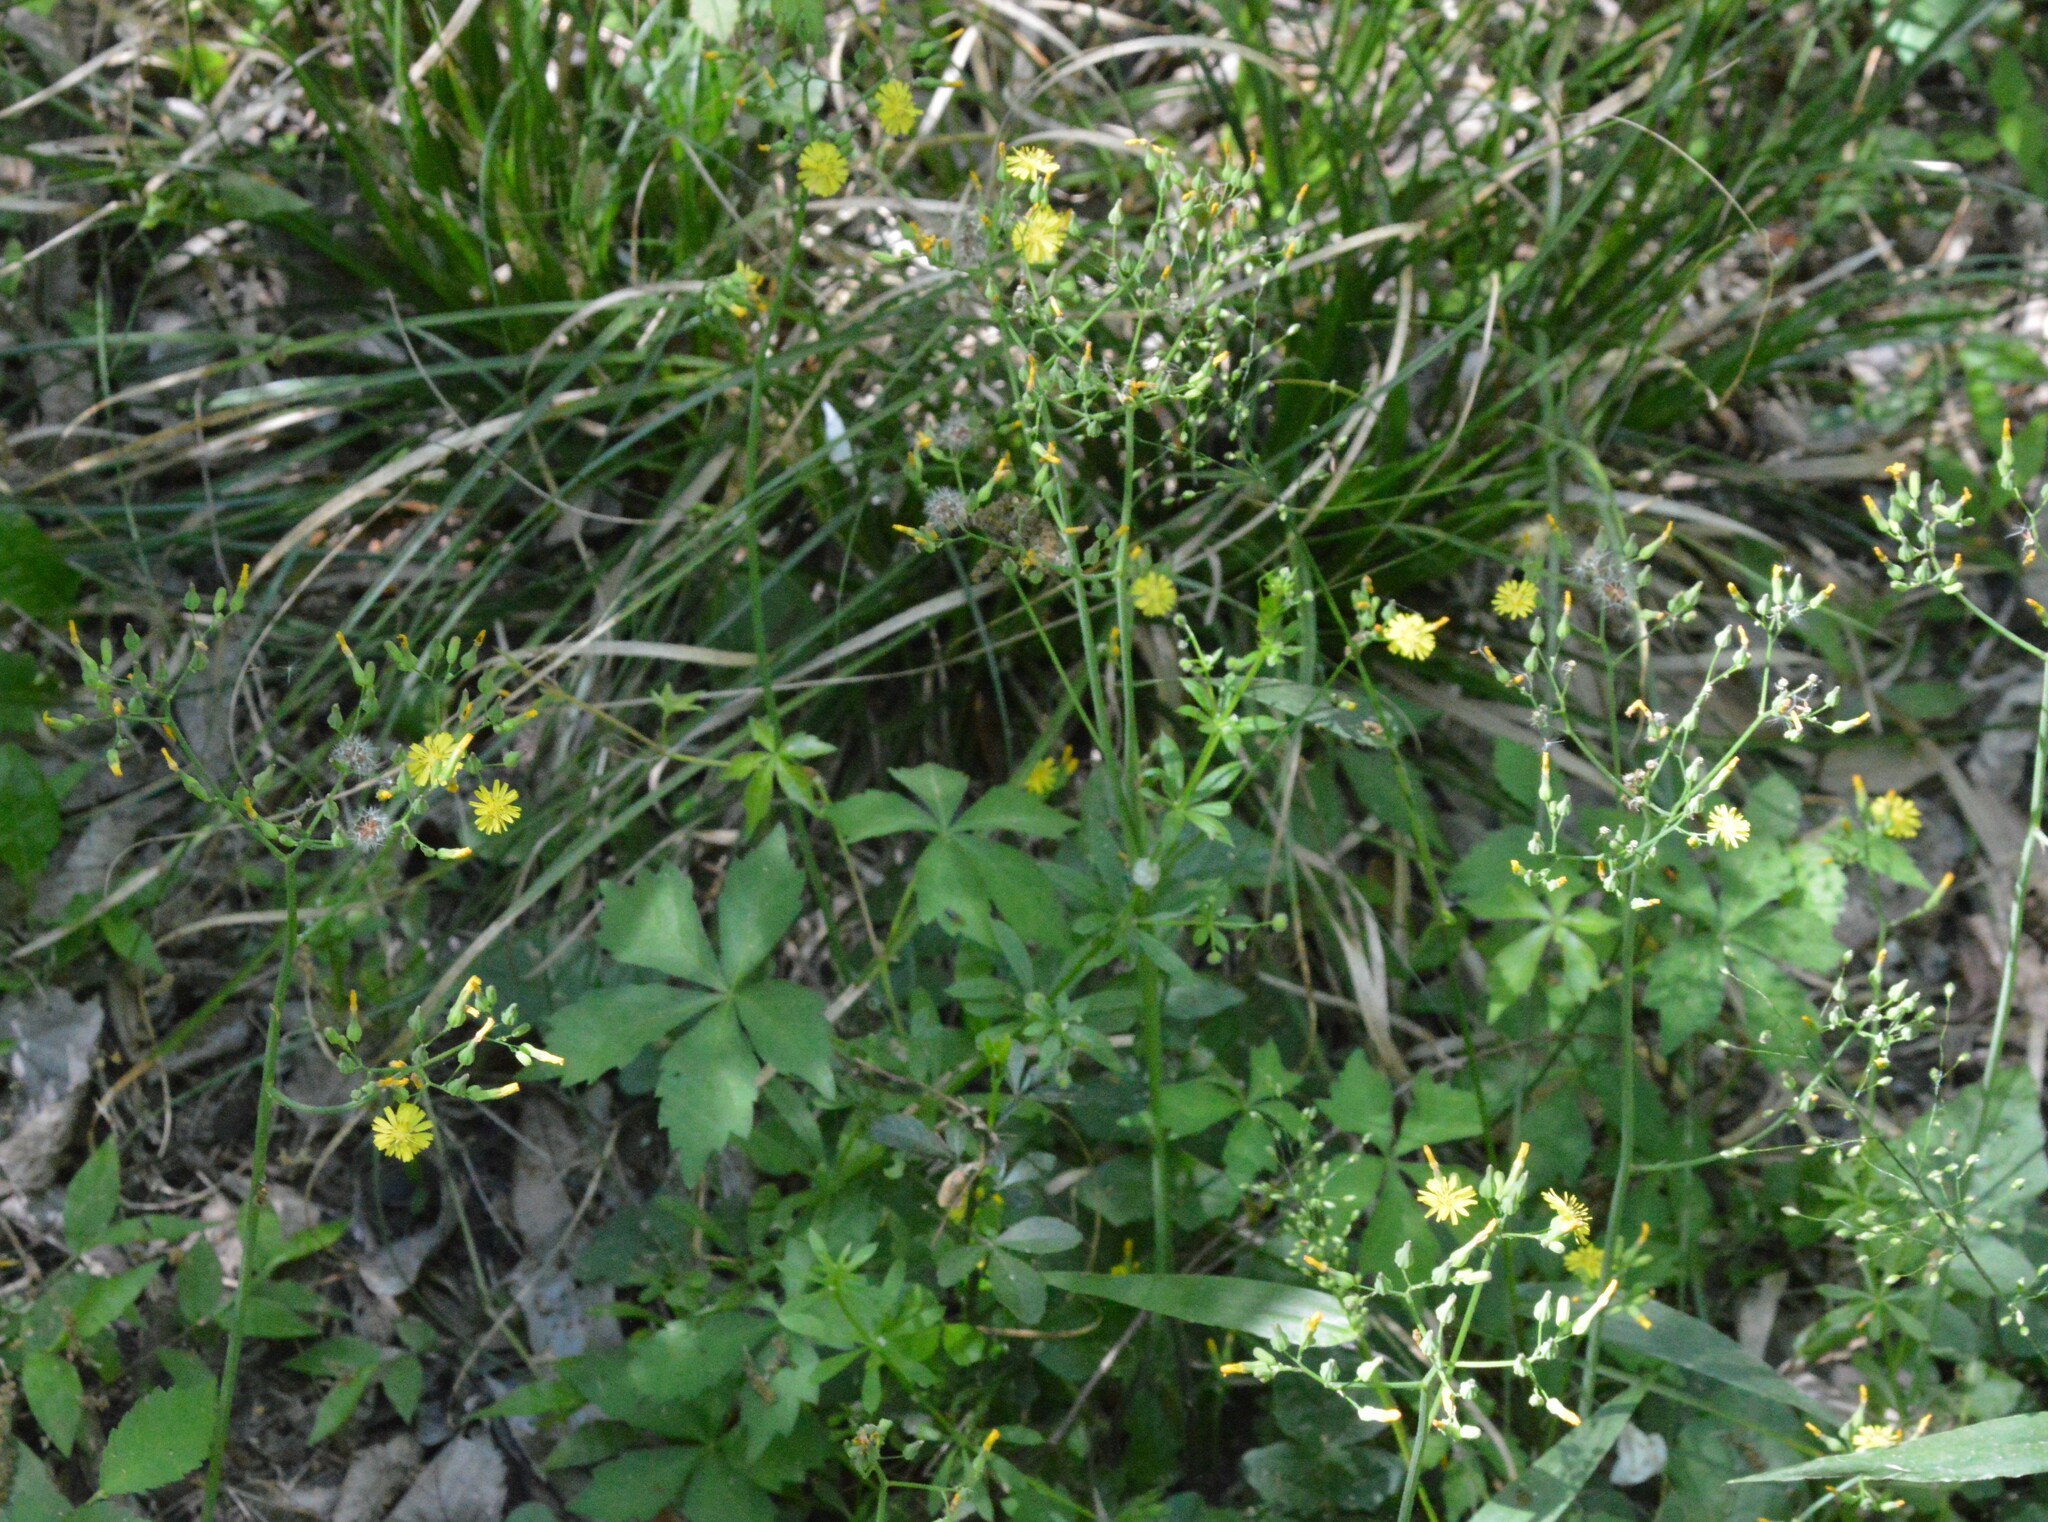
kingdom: Plantae
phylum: Tracheophyta
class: Magnoliopsida
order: Asterales
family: Asteraceae
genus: Youngia
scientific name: Youngia japonica
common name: Oriental false hawksbeard
